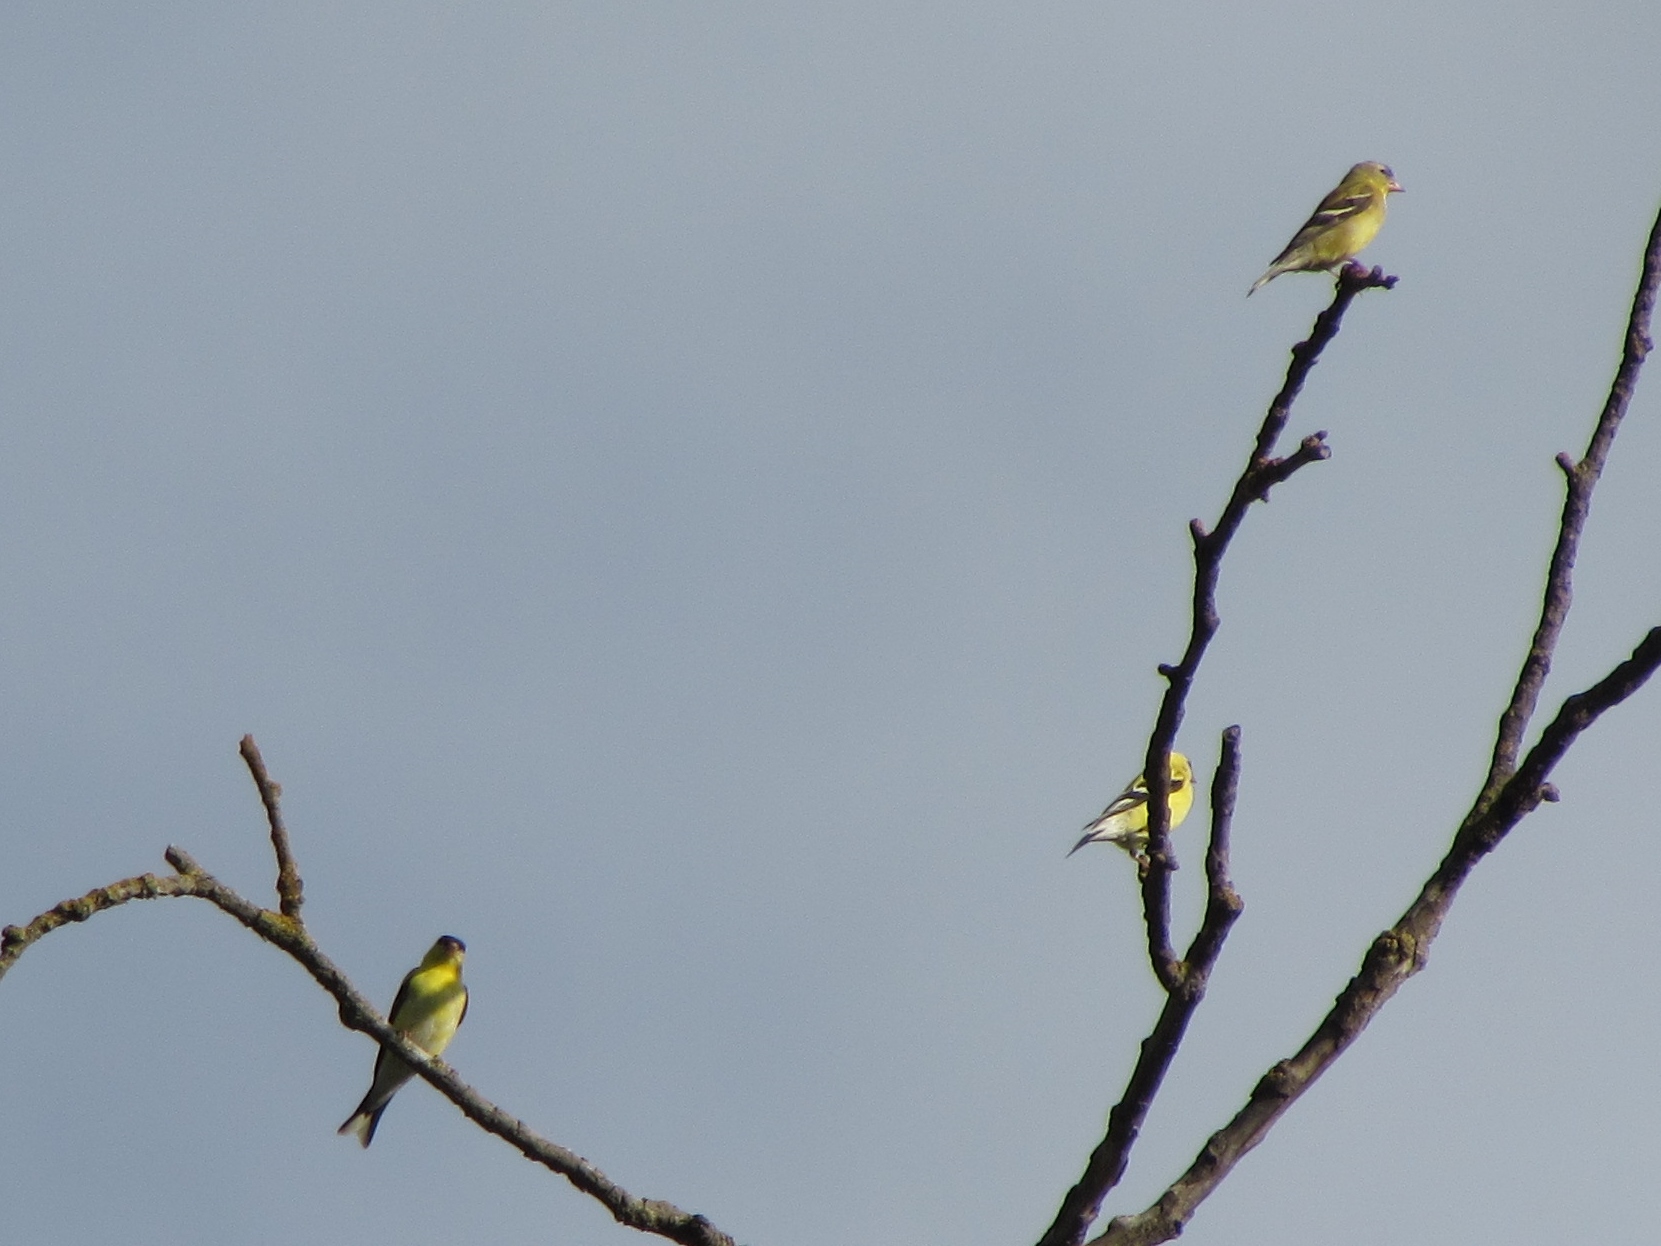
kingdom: Animalia
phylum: Chordata
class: Aves
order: Passeriformes
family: Fringillidae
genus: Spinus
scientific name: Spinus tristis
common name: American goldfinch
